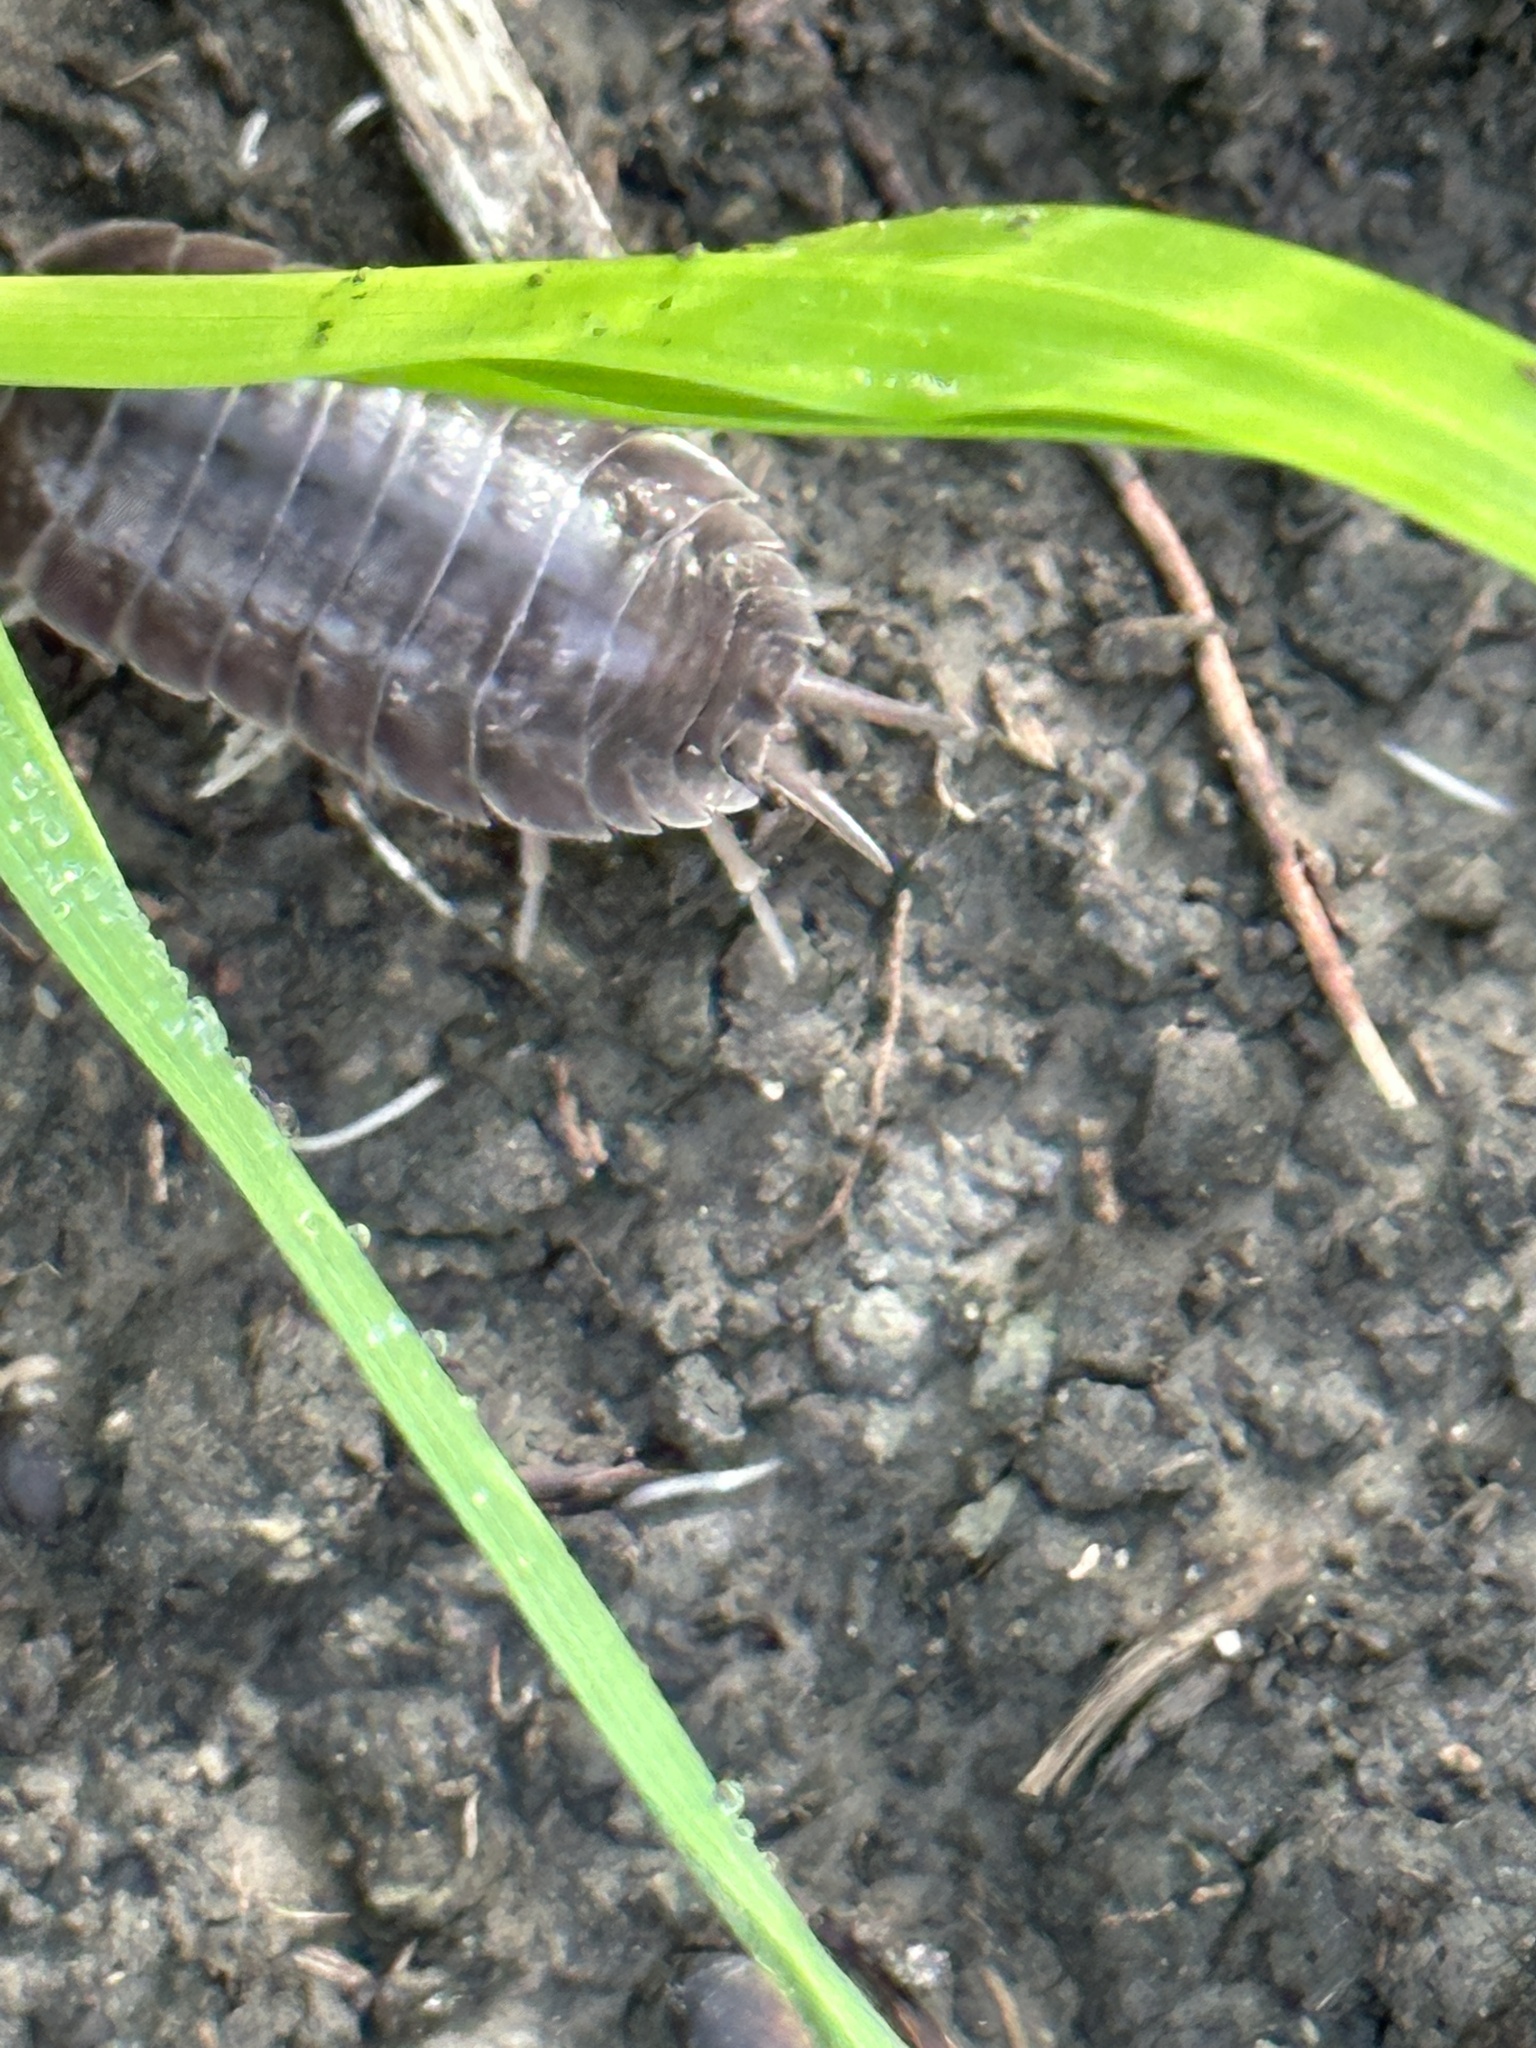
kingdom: Animalia
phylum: Arthropoda
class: Malacostraca
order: Isopoda
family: Porcellionidae
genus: Porcellio
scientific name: Porcellio laevis
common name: Swift woodlouse
